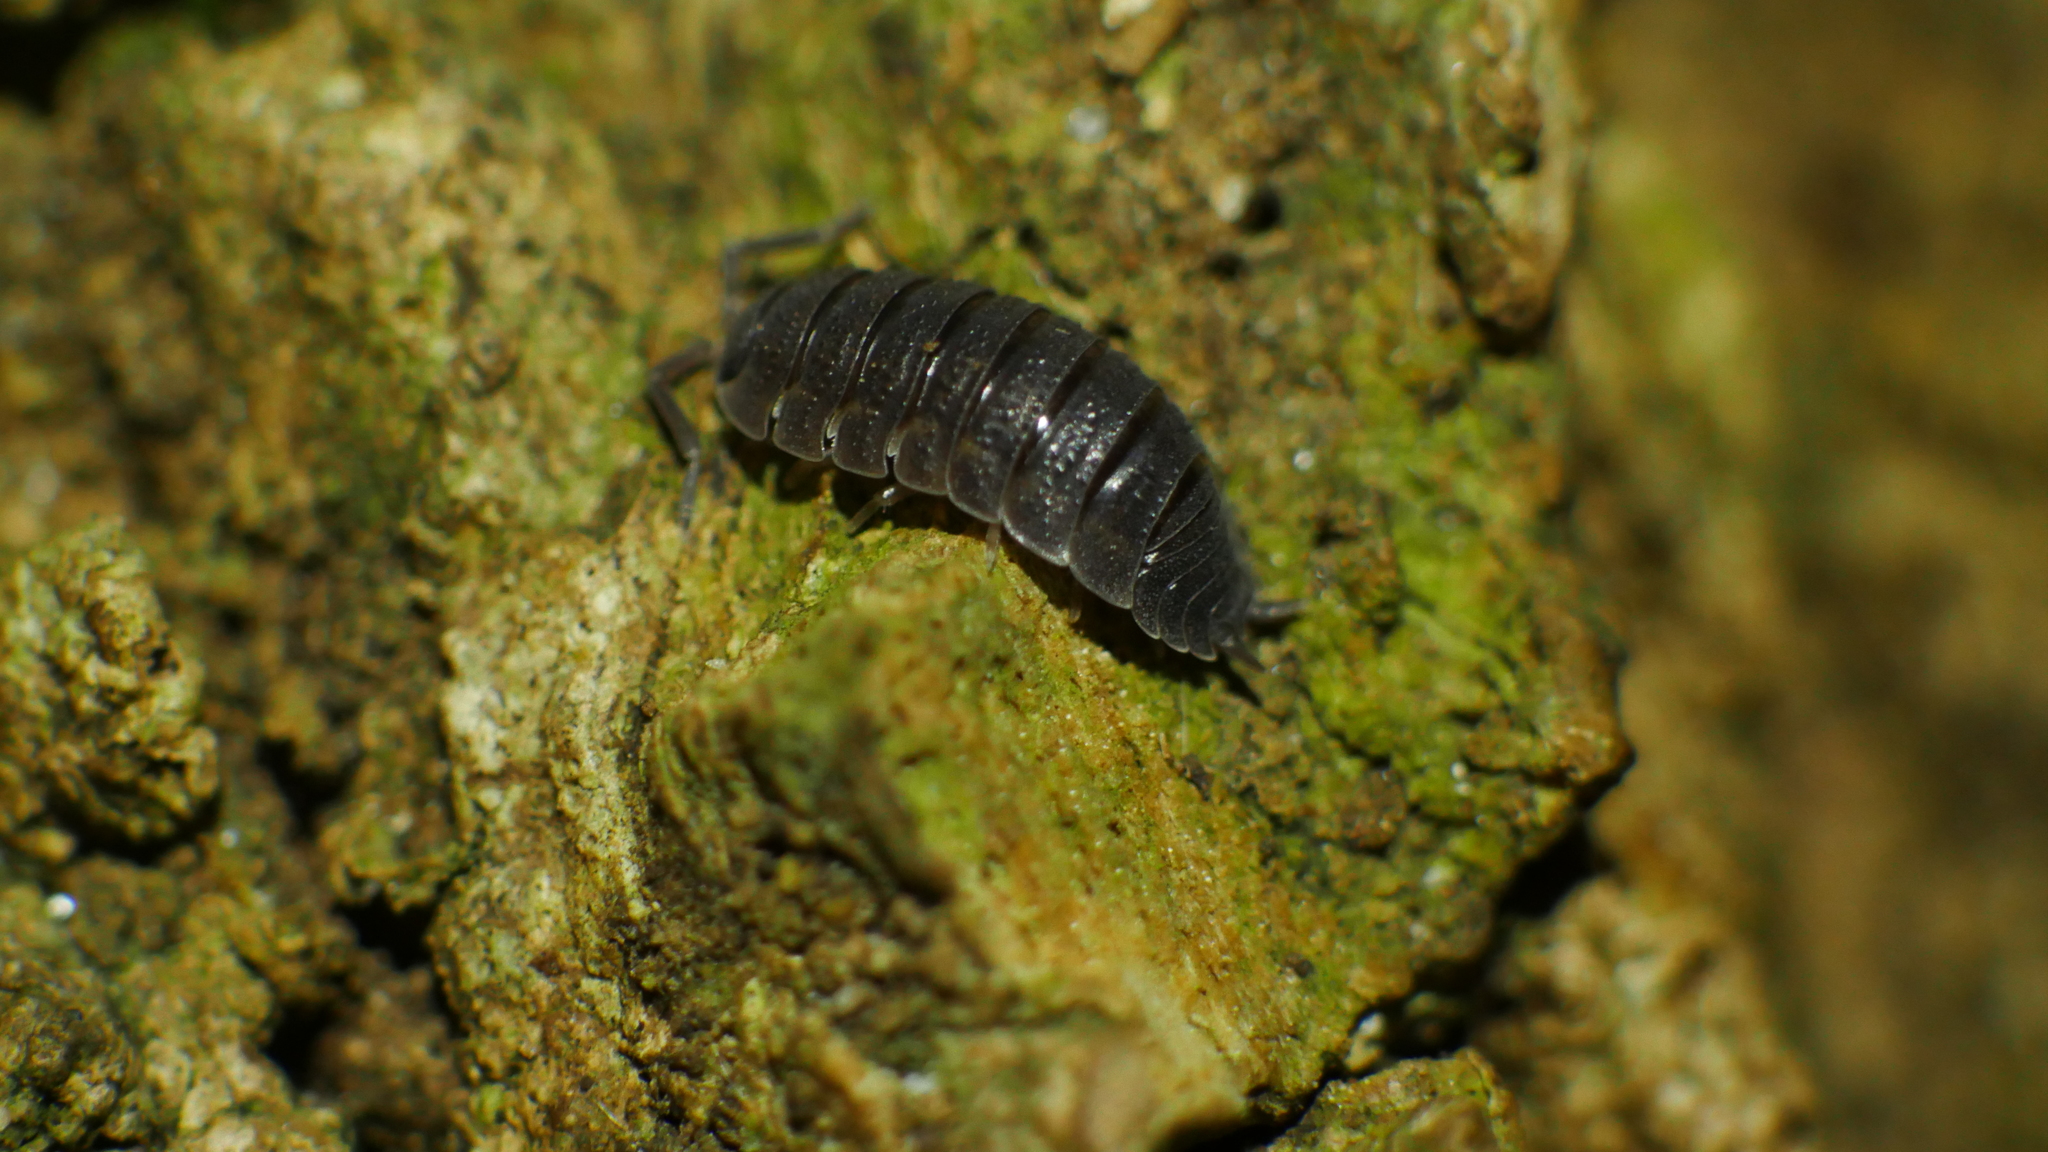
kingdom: Animalia
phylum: Arthropoda
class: Malacostraca
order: Isopoda
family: Porcellionidae
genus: Porcellio
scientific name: Porcellio scaber
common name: Common rough woodlouse
